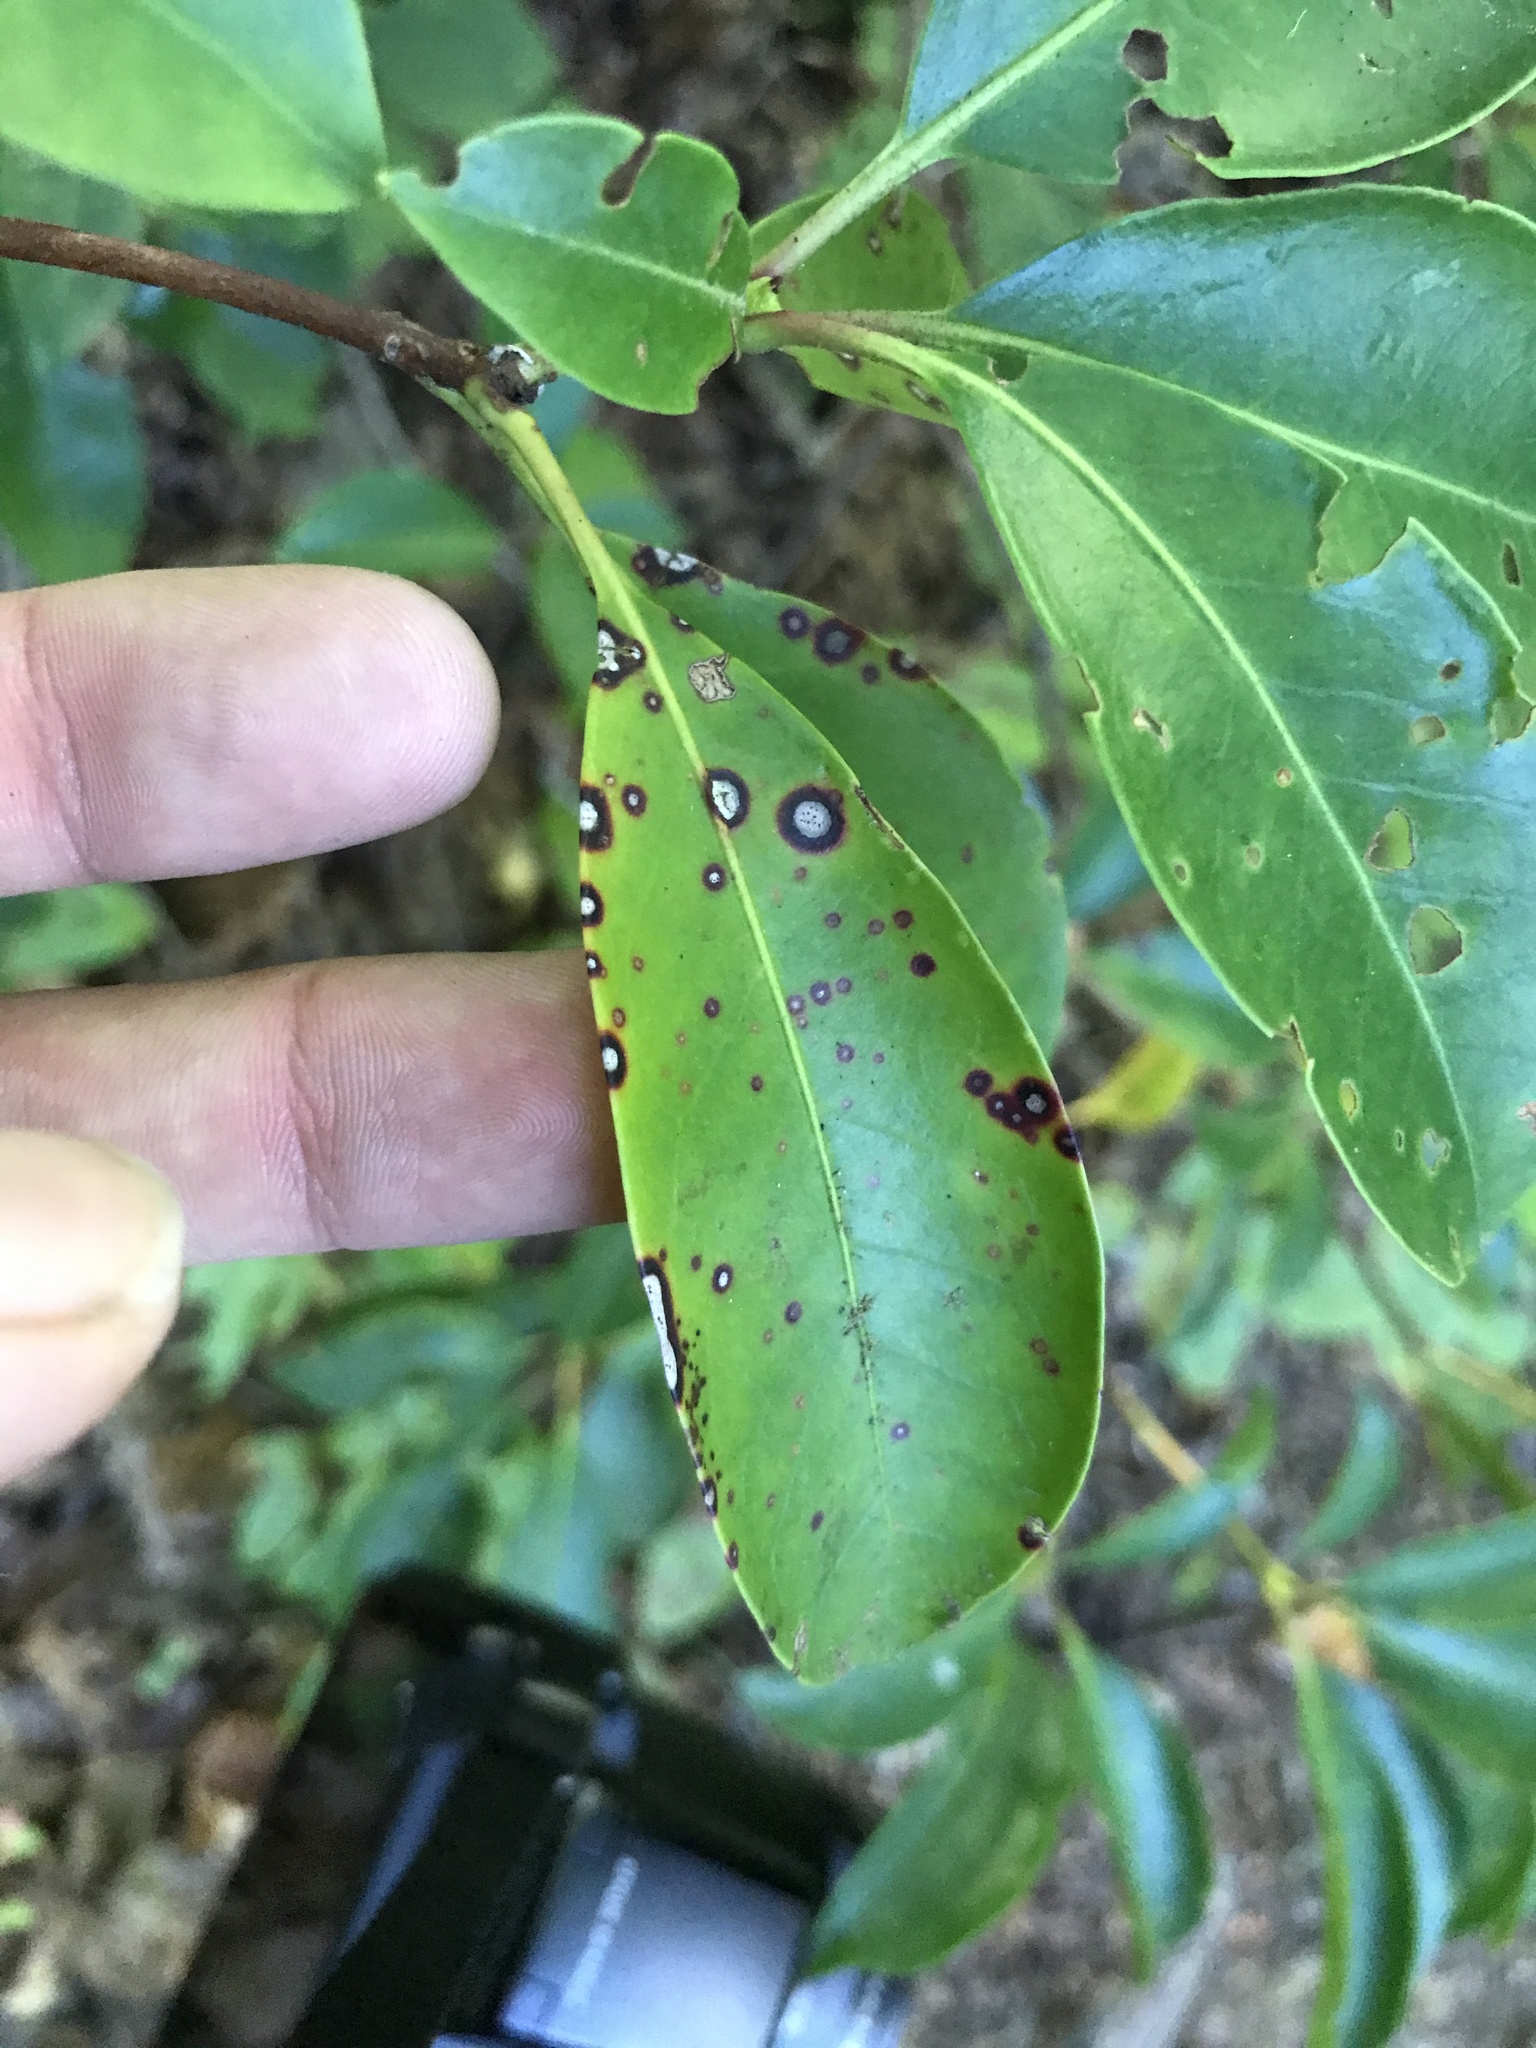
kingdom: Fungi
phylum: Ascomycota
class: Dothideomycetes
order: Mycosphaerellales
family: Mycosphaerellaceae
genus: Mycosphaerella
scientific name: Mycosphaerella colorata
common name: Mountain laurel leaf spot
